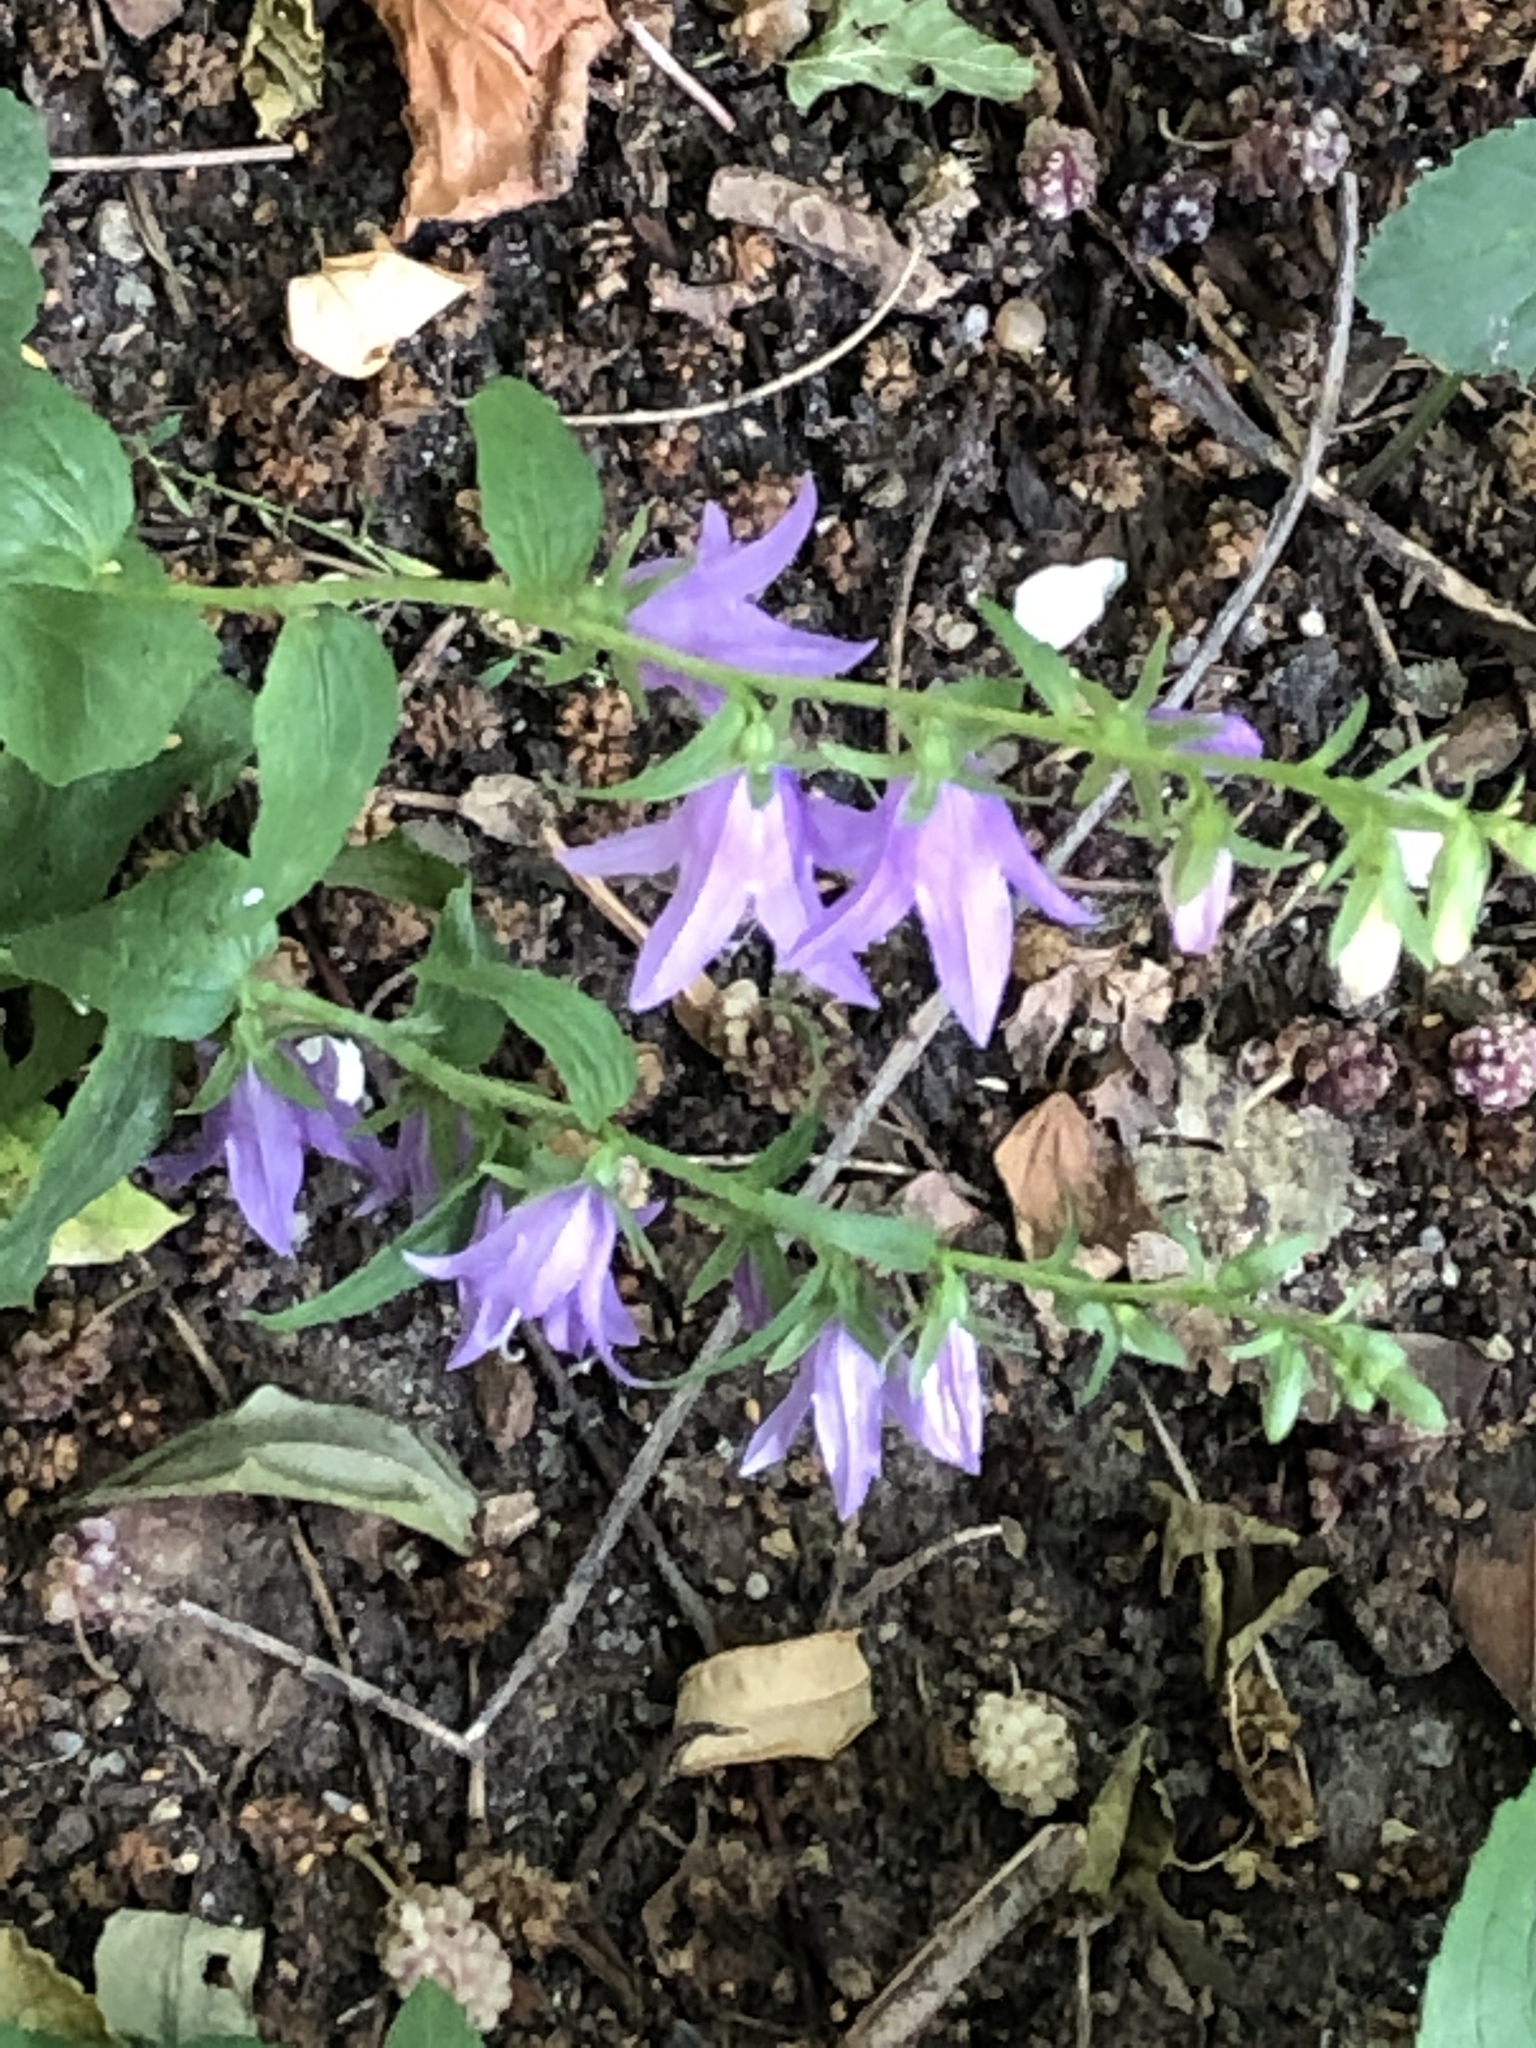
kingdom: Plantae
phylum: Tracheophyta
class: Magnoliopsida
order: Asterales
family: Campanulaceae
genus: Campanula
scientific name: Campanula rapunculoides
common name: Creeping bellflower
